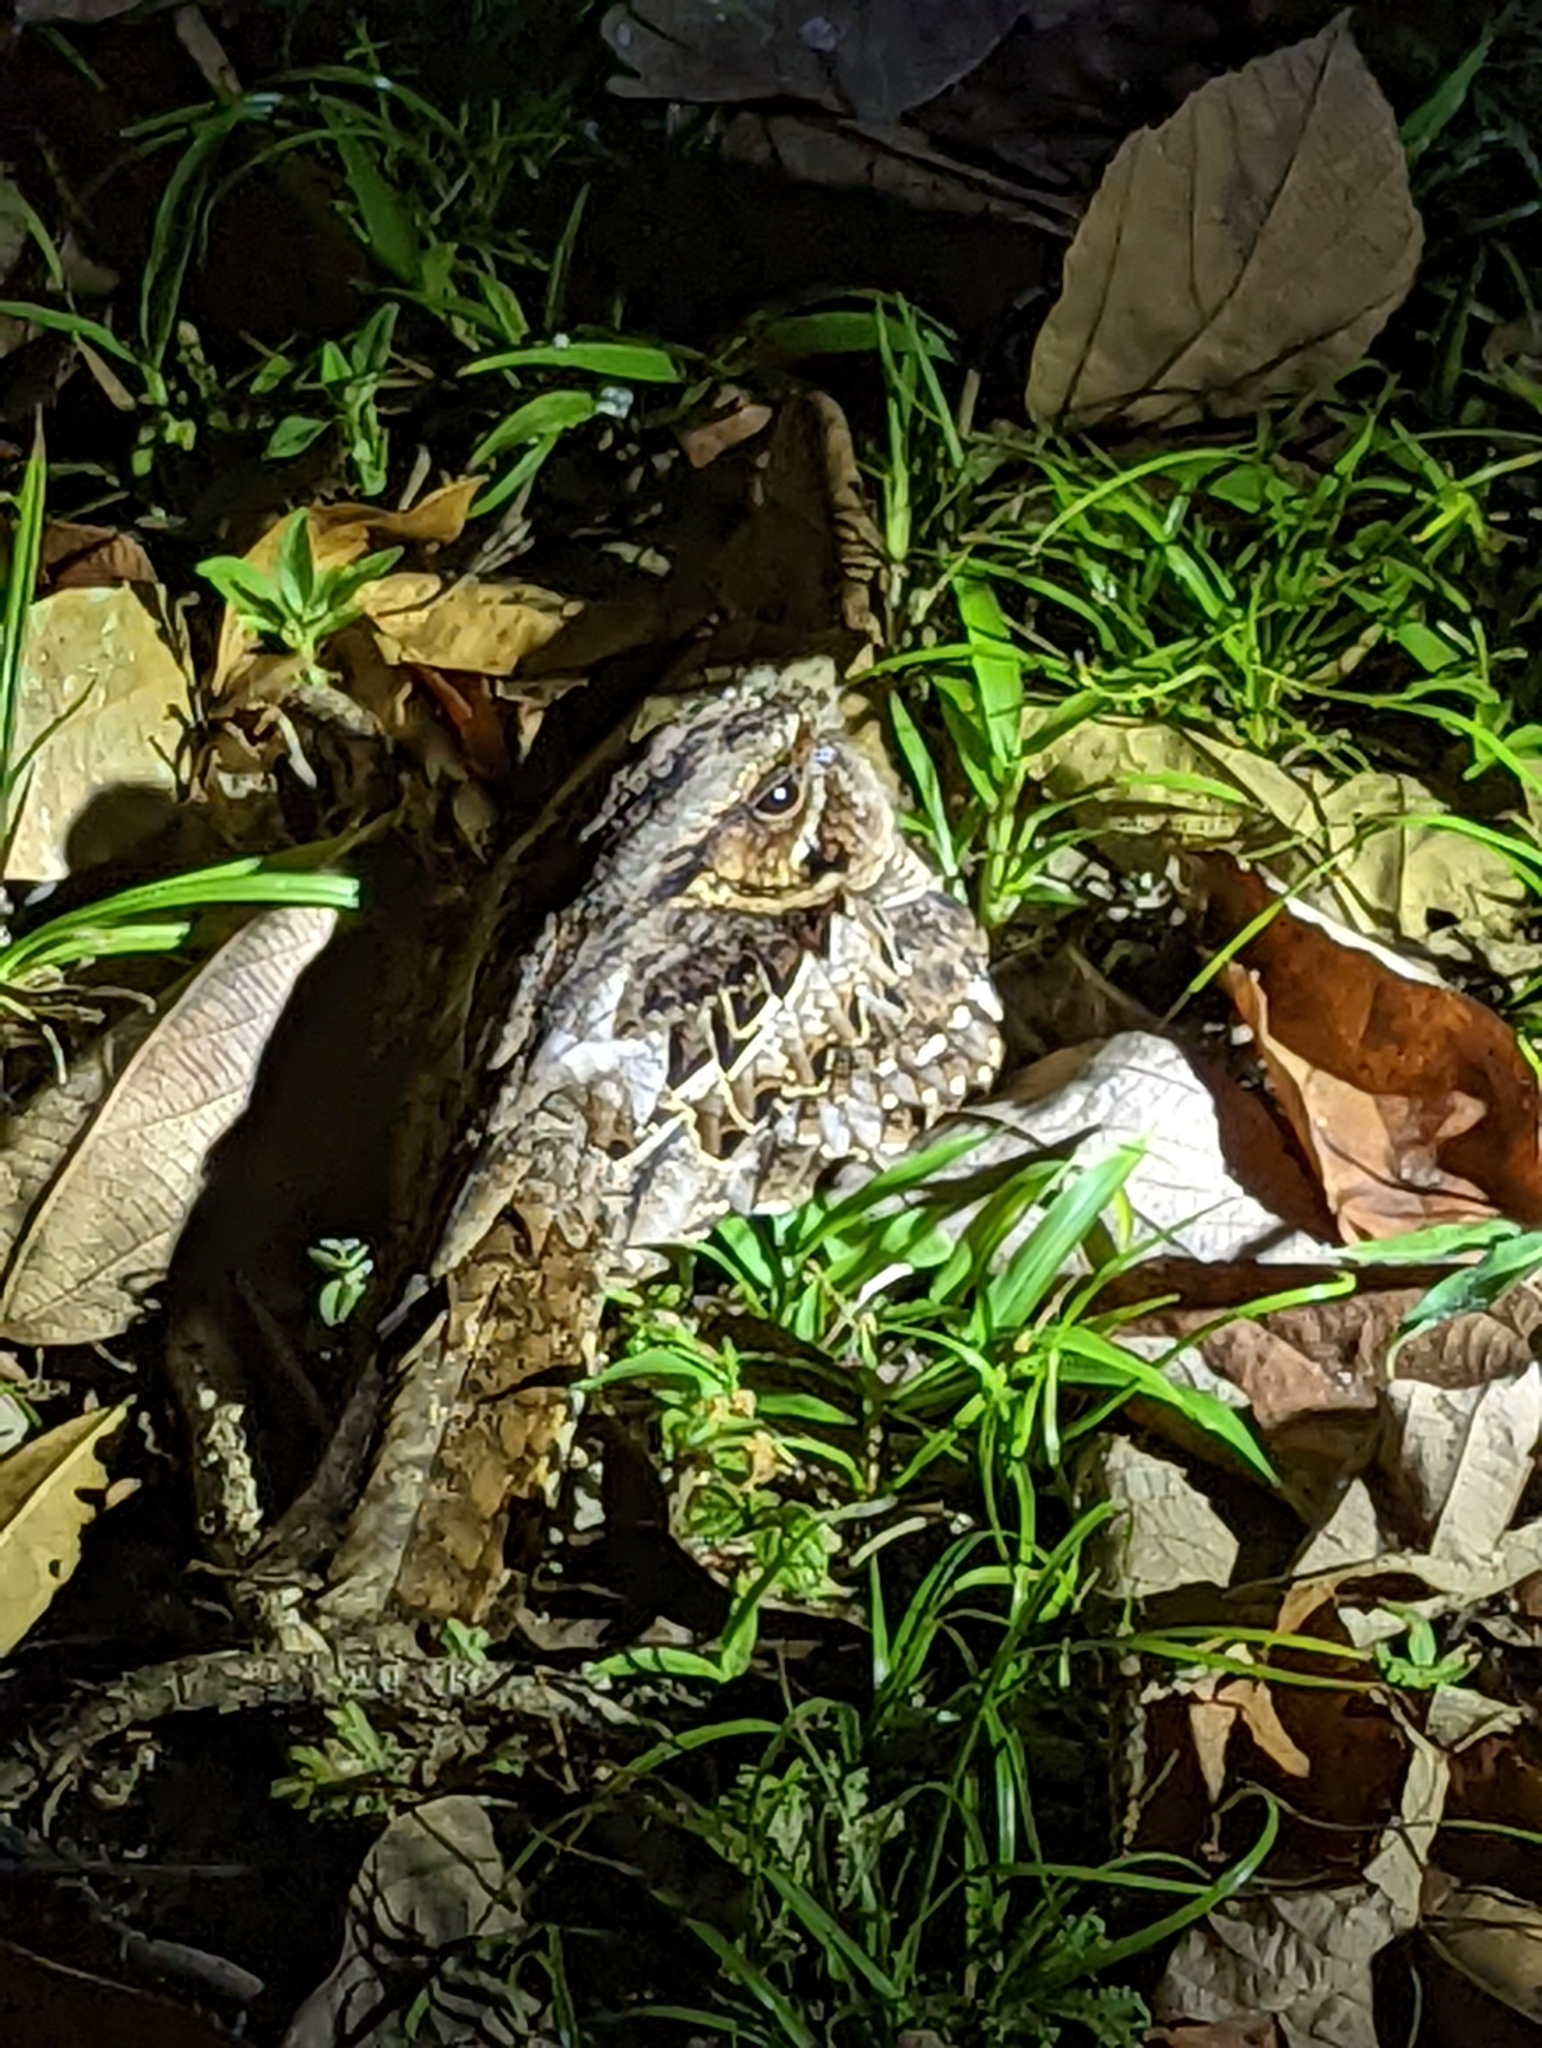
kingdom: Animalia
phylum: Chordata
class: Aves
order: Caprimulgiformes
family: Caprimulgidae
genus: Nyctidromus
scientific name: Nyctidromus albicollis
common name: Pauraque
